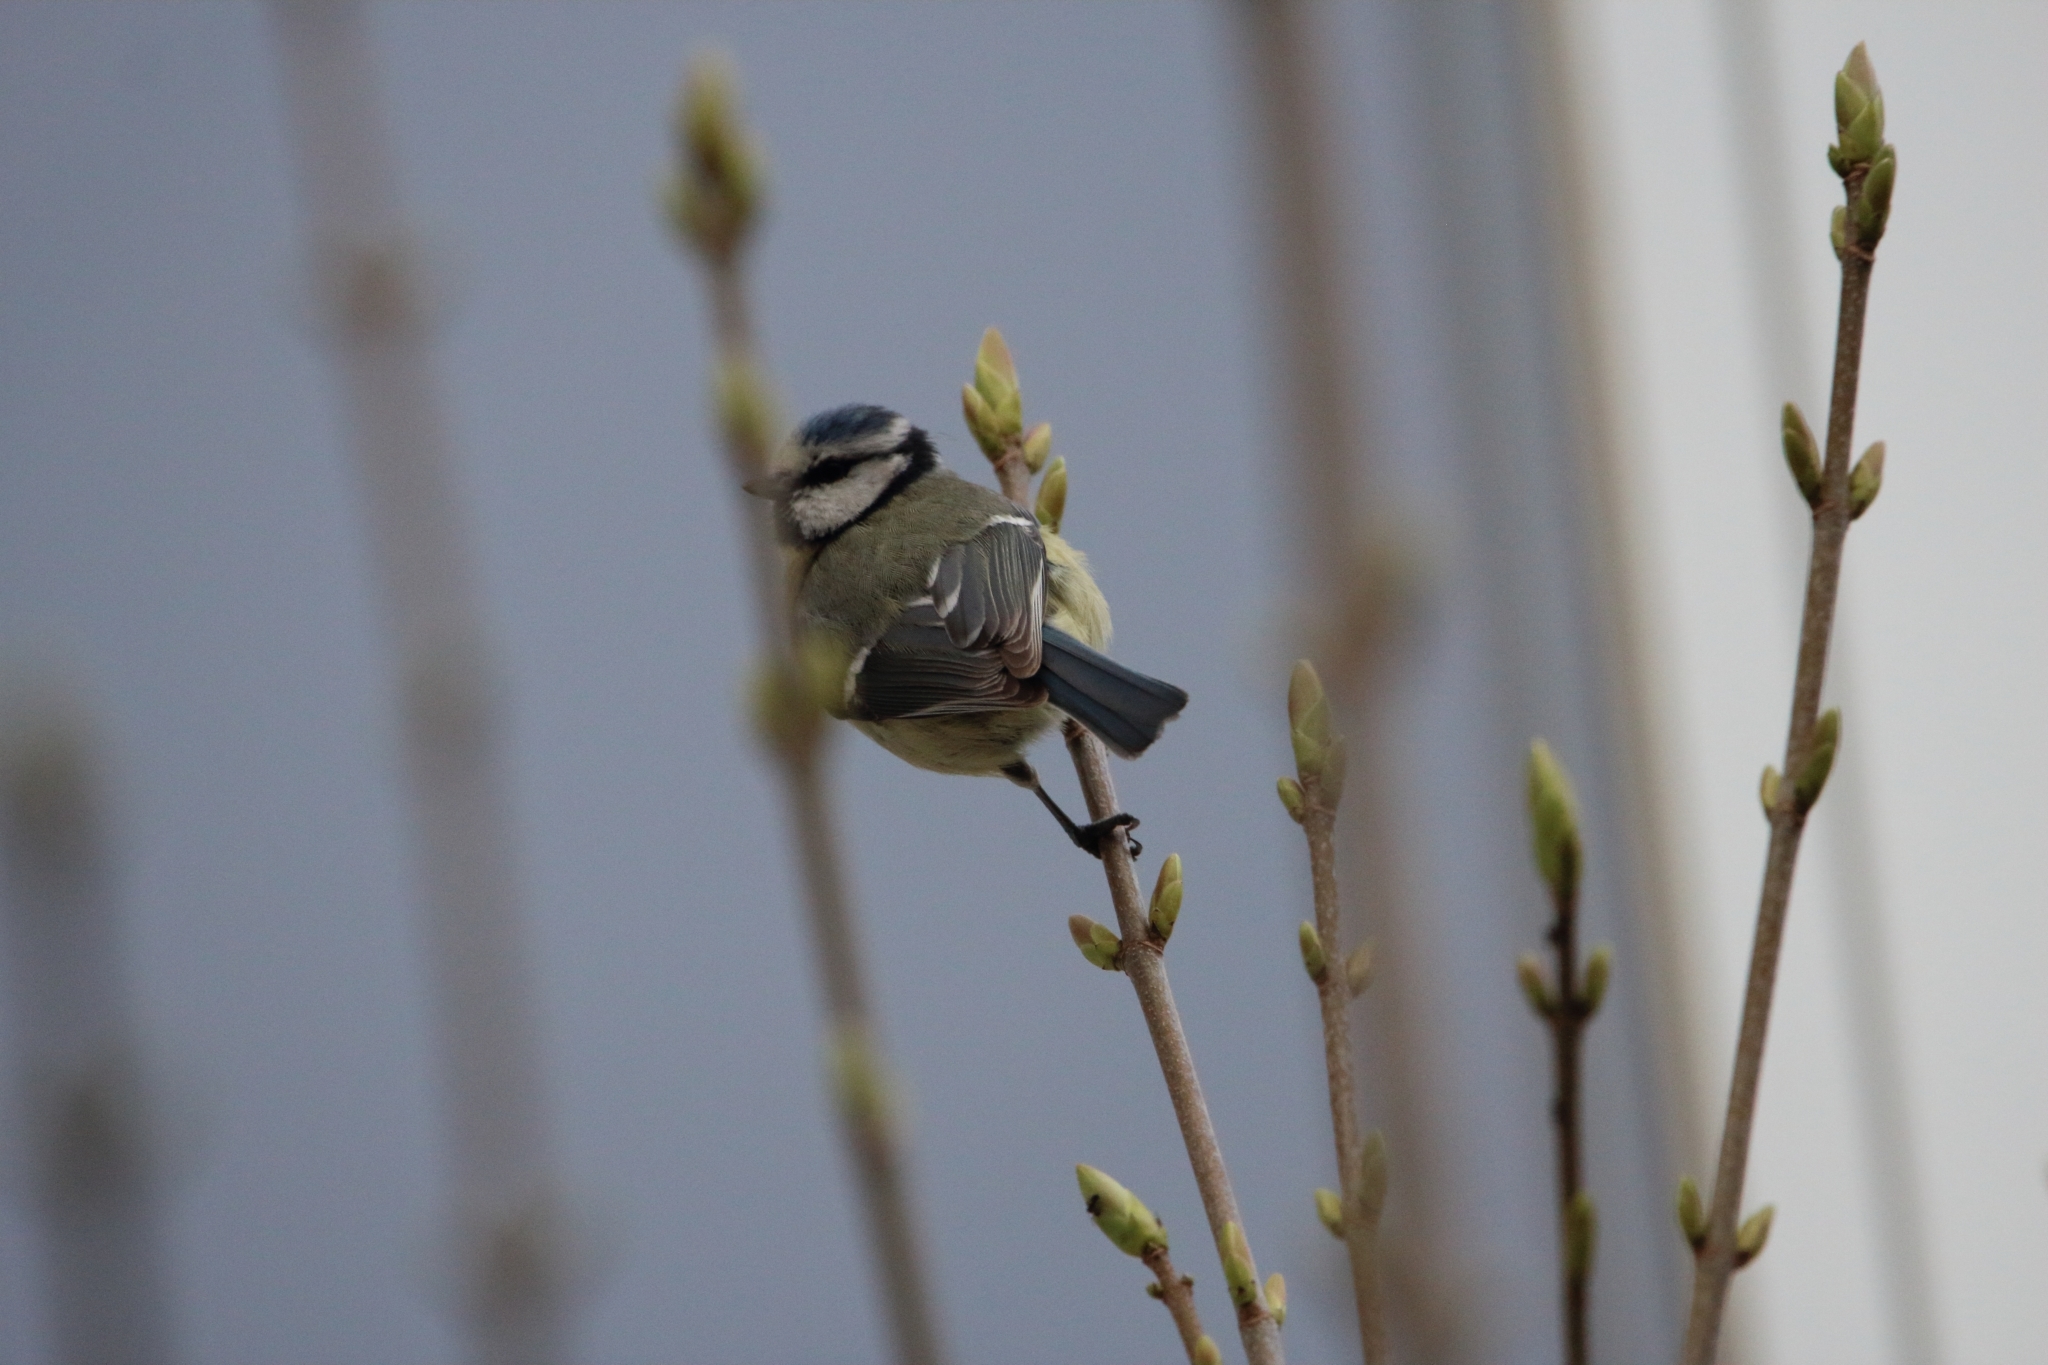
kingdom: Animalia
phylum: Chordata
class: Aves
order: Passeriformes
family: Paridae
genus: Cyanistes
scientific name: Cyanistes caeruleus
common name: Eurasian blue tit
